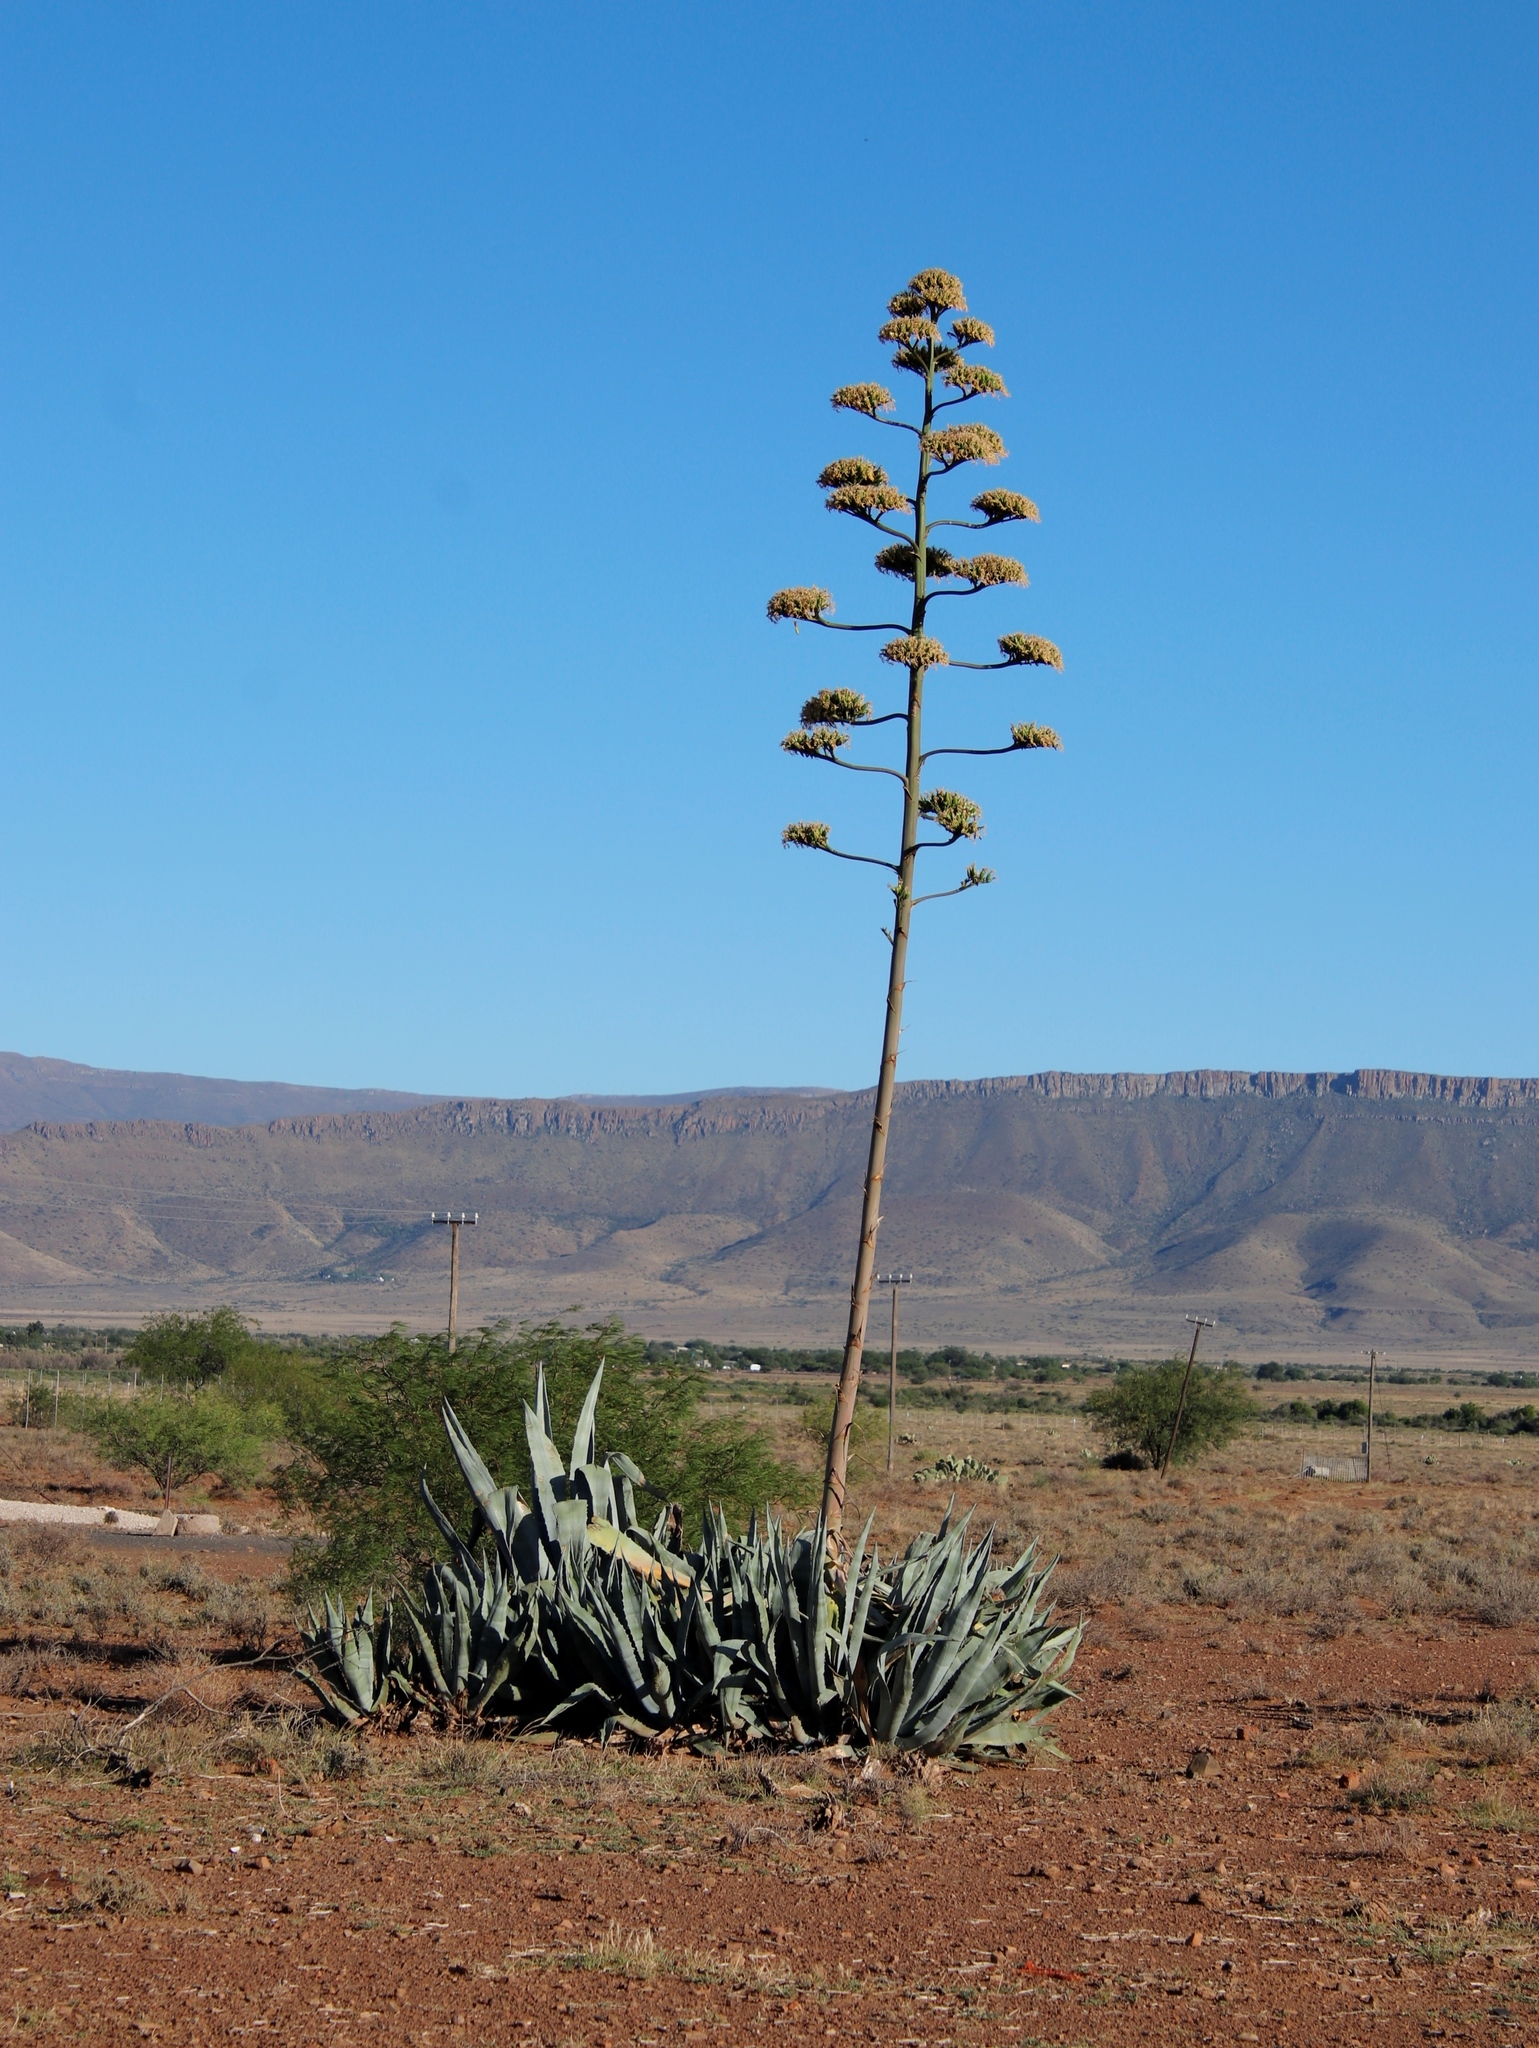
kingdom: Plantae
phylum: Tracheophyta
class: Liliopsida
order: Asparagales
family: Asparagaceae
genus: Agave
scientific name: Agave americana
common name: Centuryplant
